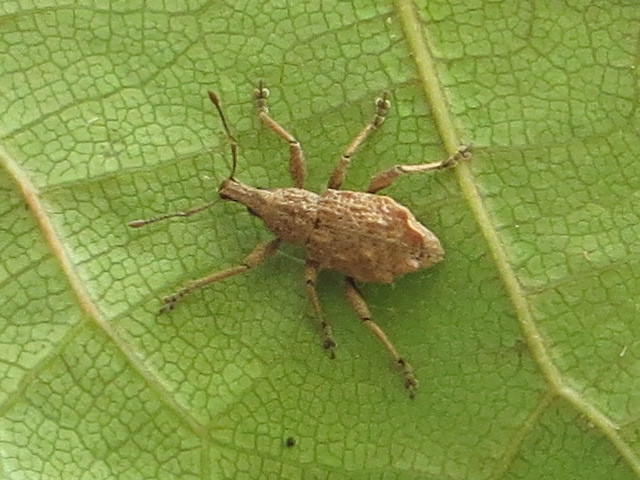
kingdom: Animalia
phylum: Arthropoda
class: Insecta
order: Coleoptera
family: Curculionidae
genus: Catoptes
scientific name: Catoptes censorius
